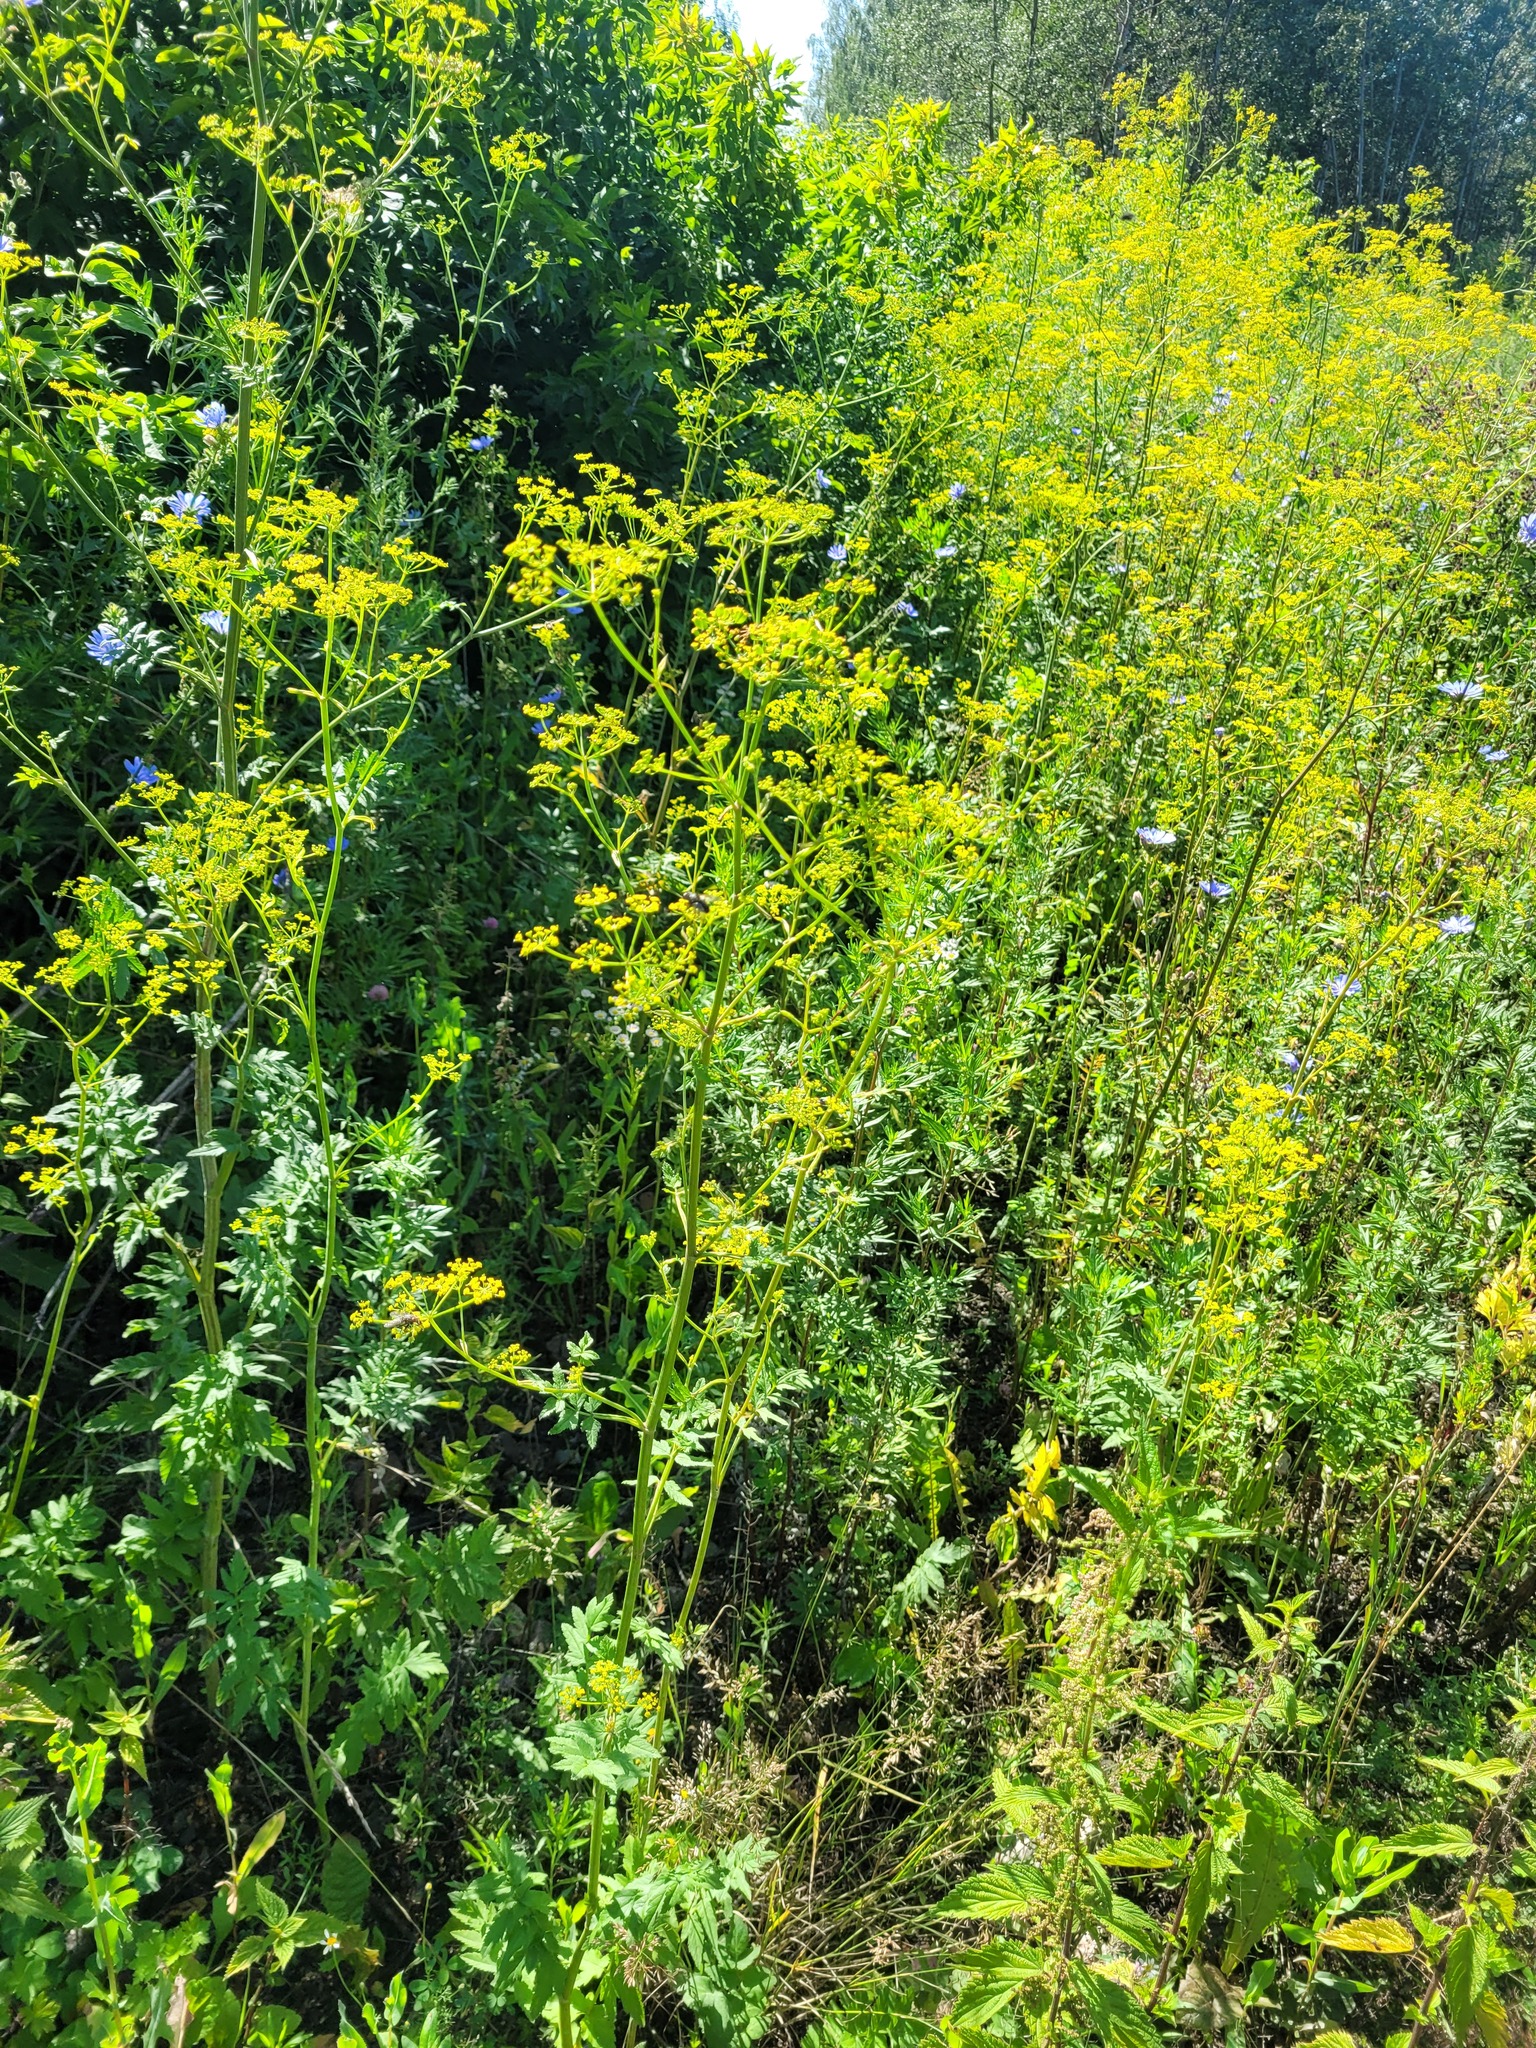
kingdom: Plantae
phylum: Tracheophyta
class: Magnoliopsida
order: Apiales
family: Apiaceae
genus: Pastinaca
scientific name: Pastinaca sativa
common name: Wild parsnip
